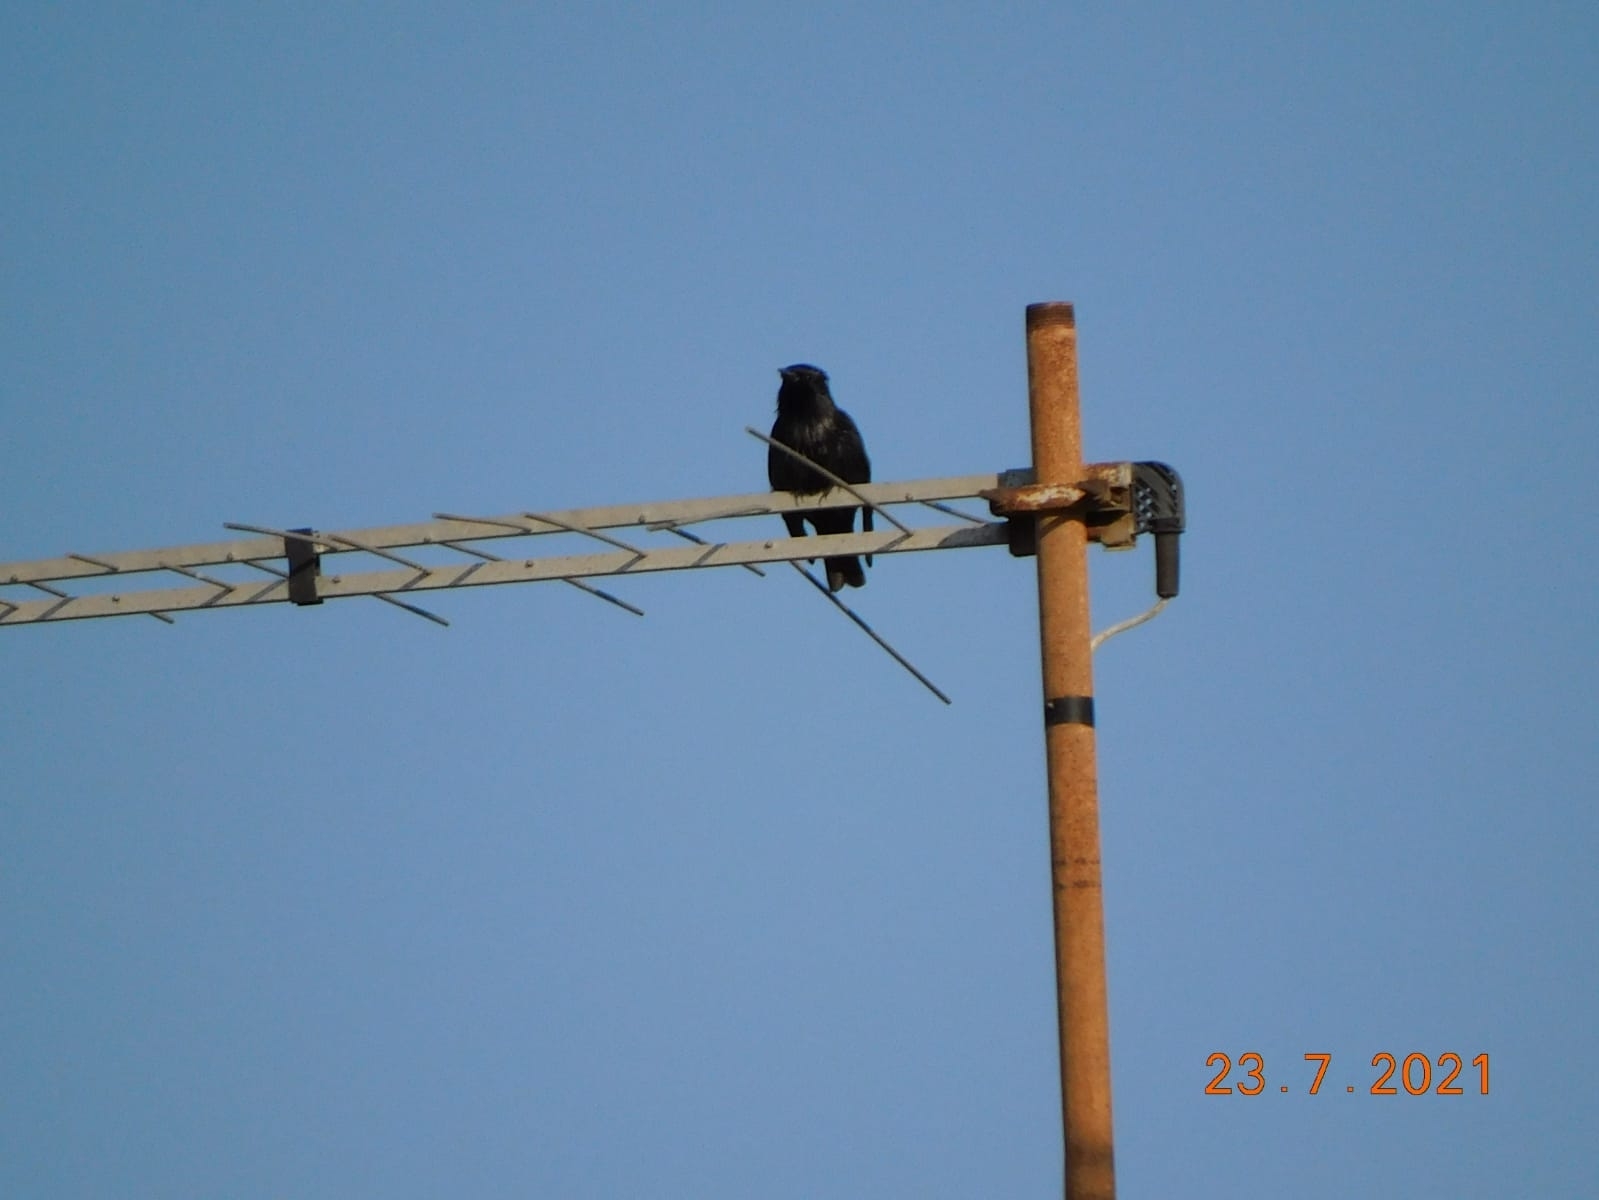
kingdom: Animalia
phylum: Chordata
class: Aves
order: Passeriformes
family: Sturnidae
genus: Sturnus
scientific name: Sturnus unicolor
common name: Spotless starling
